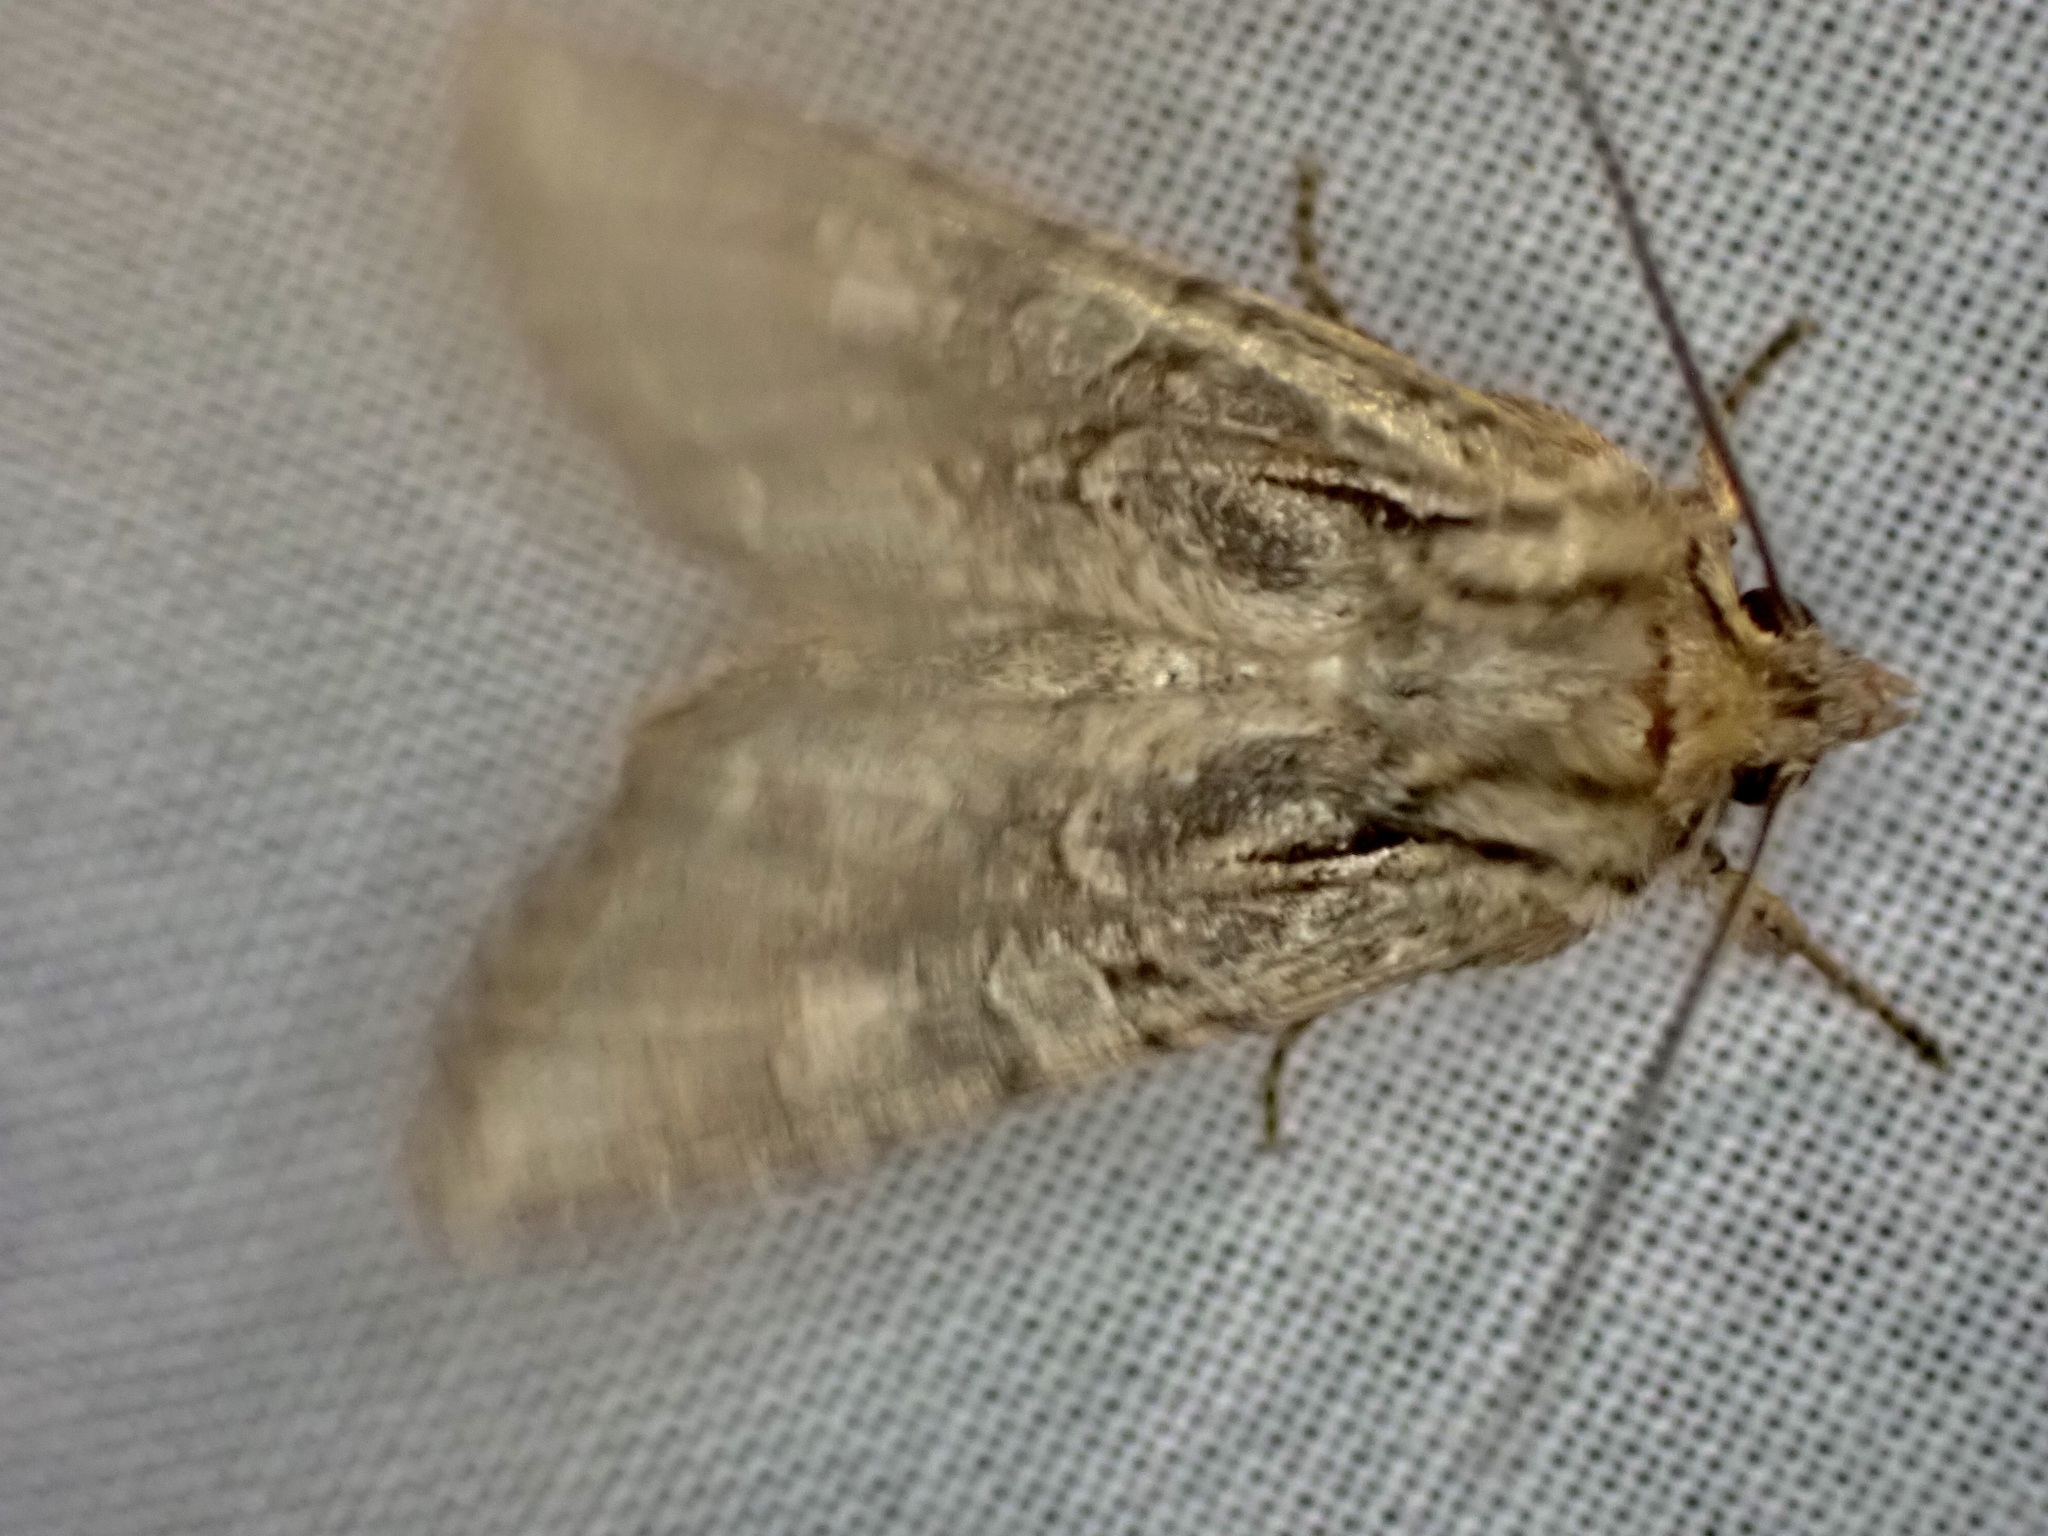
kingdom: Animalia
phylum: Arthropoda
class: Insecta
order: Lepidoptera
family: Noctuidae
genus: Ichneutica
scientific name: Ichneutica mutans
